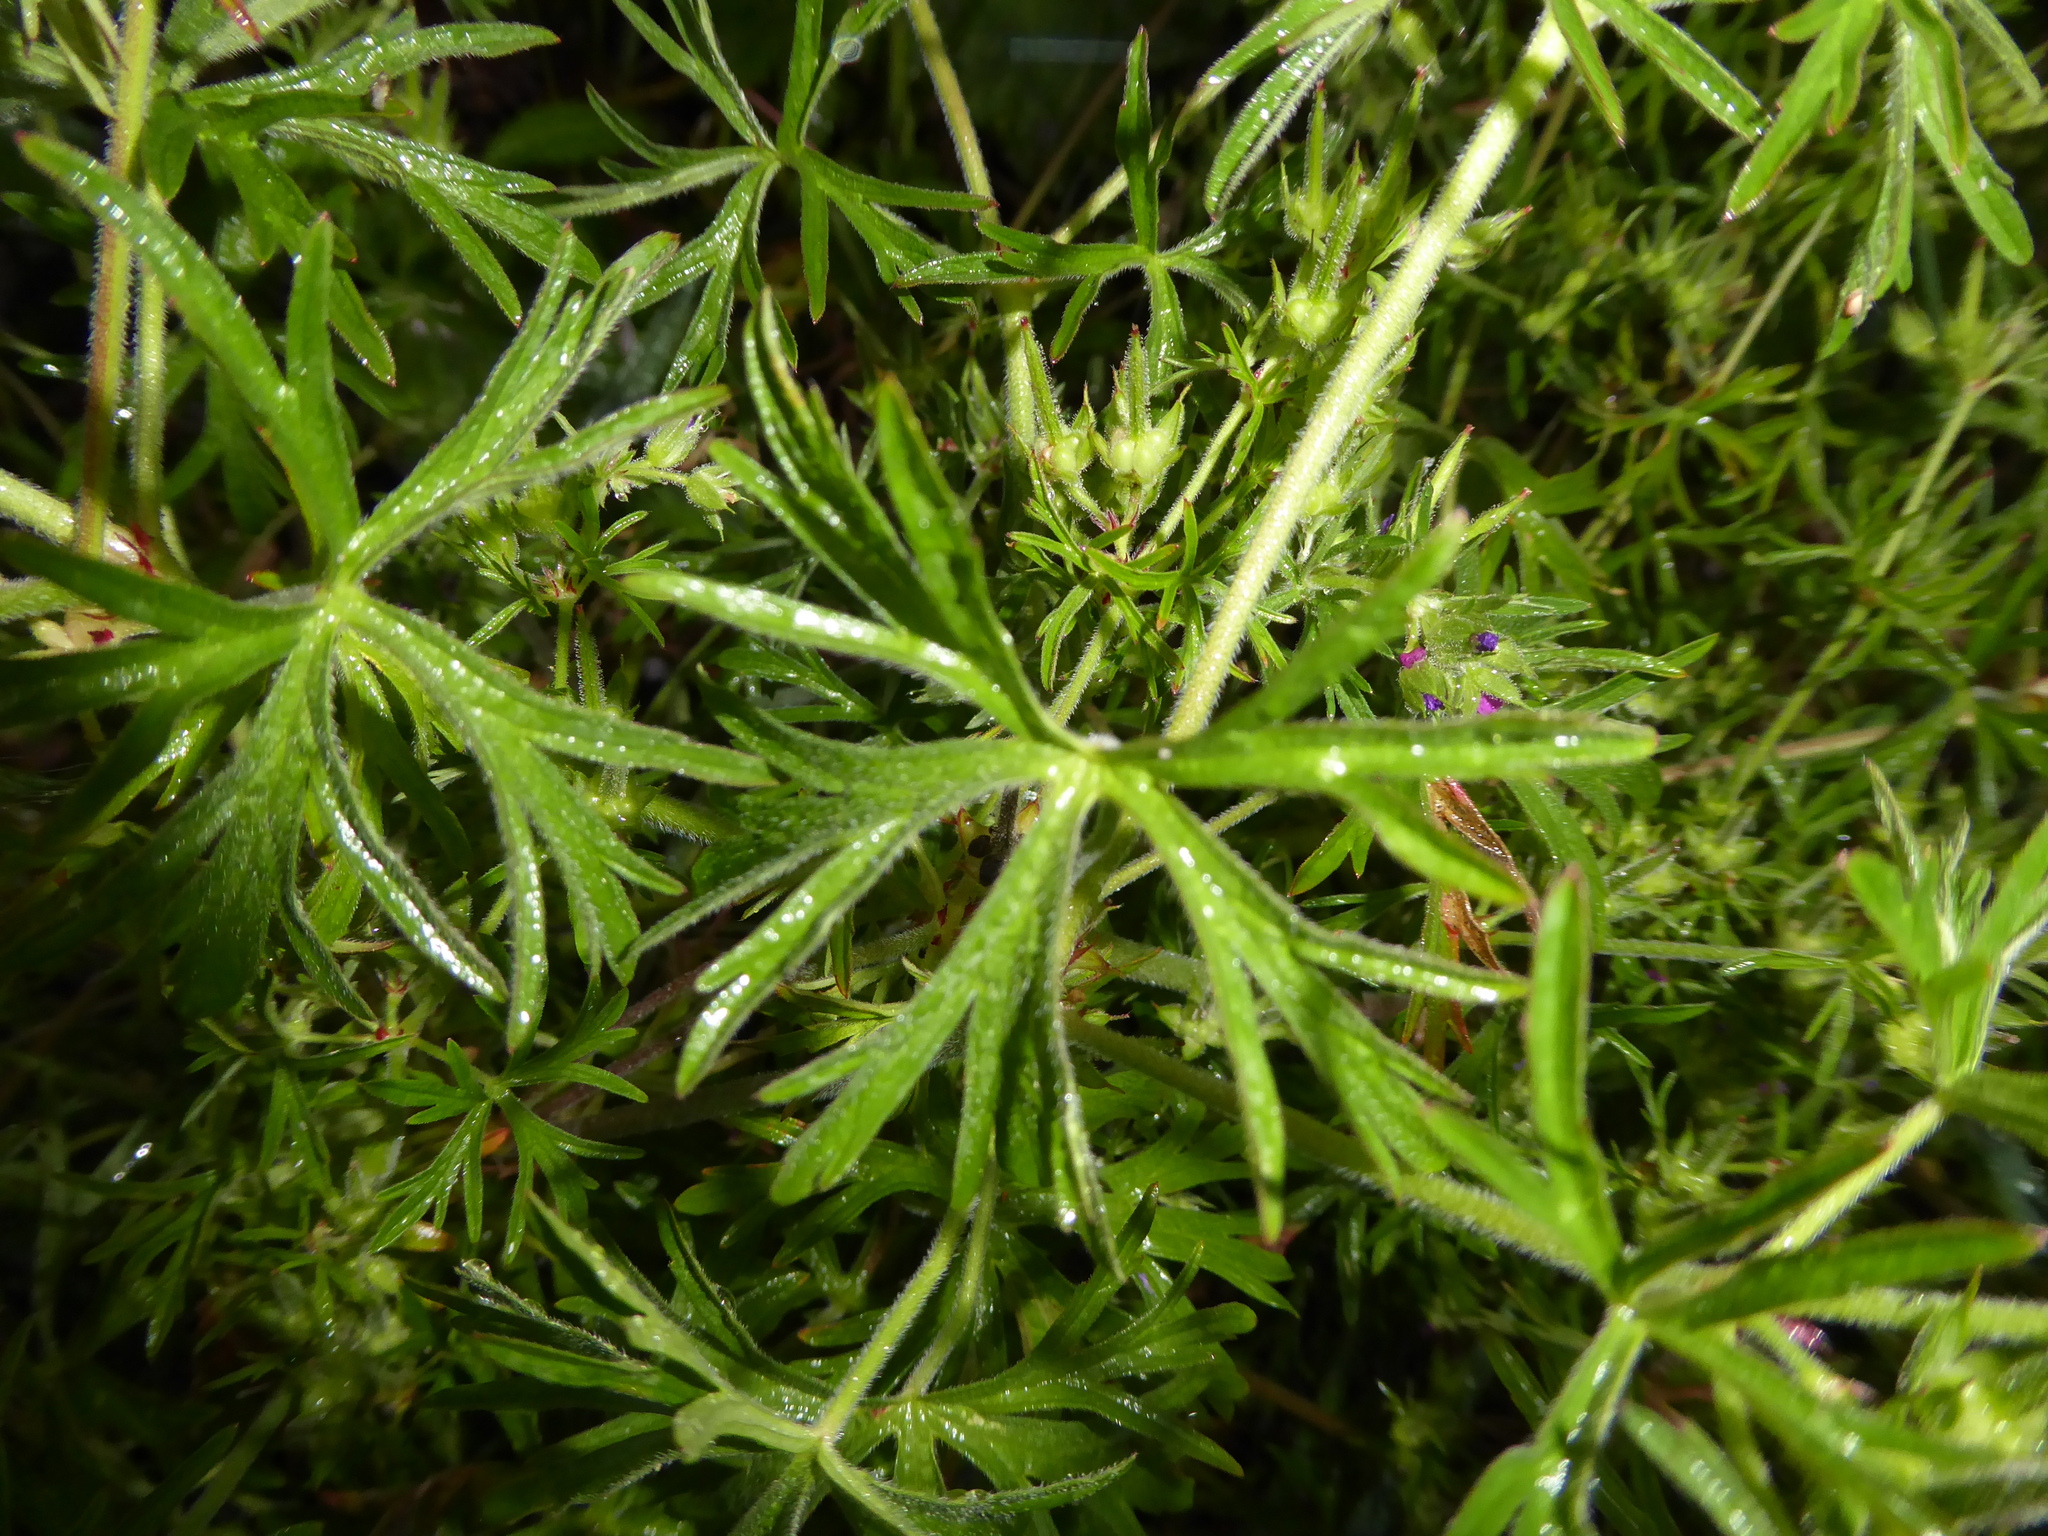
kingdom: Plantae
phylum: Tracheophyta
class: Magnoliopsida
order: Geraniales
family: Geraniaceae
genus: Geranium
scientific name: Geranium dissectum
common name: Cut-leaved crane's-bill
